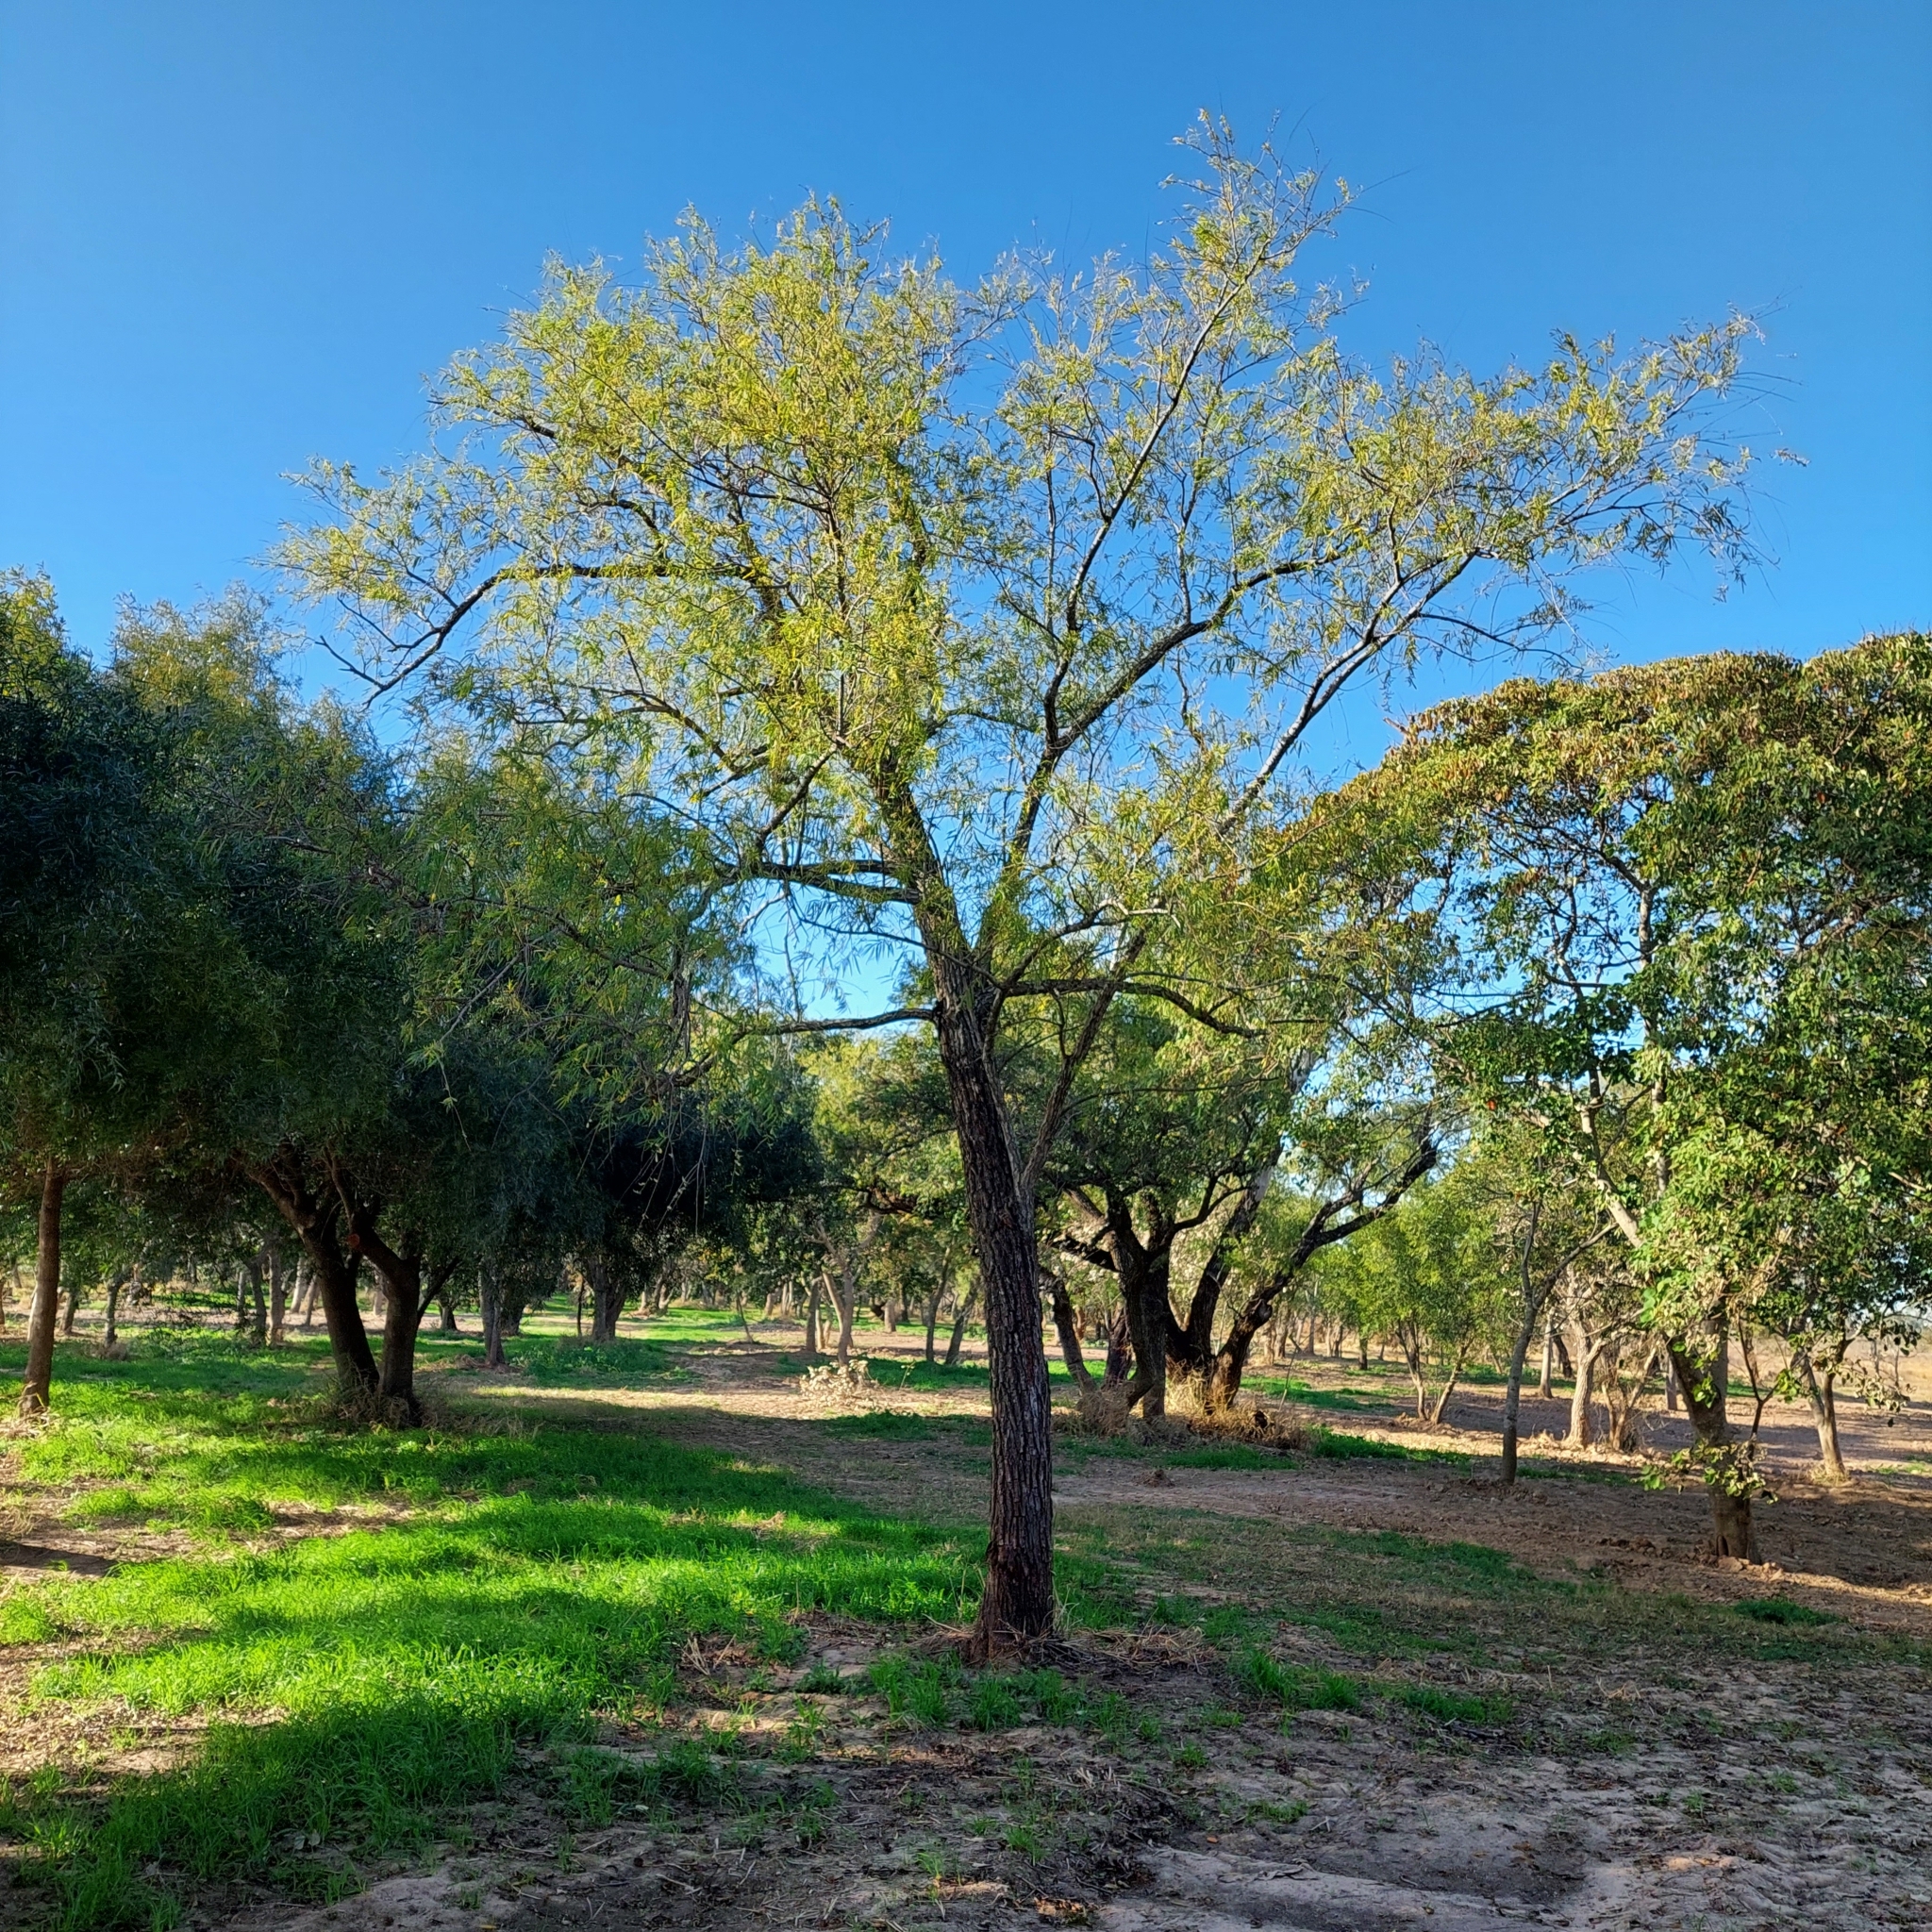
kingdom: Plantae
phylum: Tracheophyta
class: Magnoliopsida
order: Malpighiales
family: Salicaceae
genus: Salix
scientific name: Salix humboldtiana
